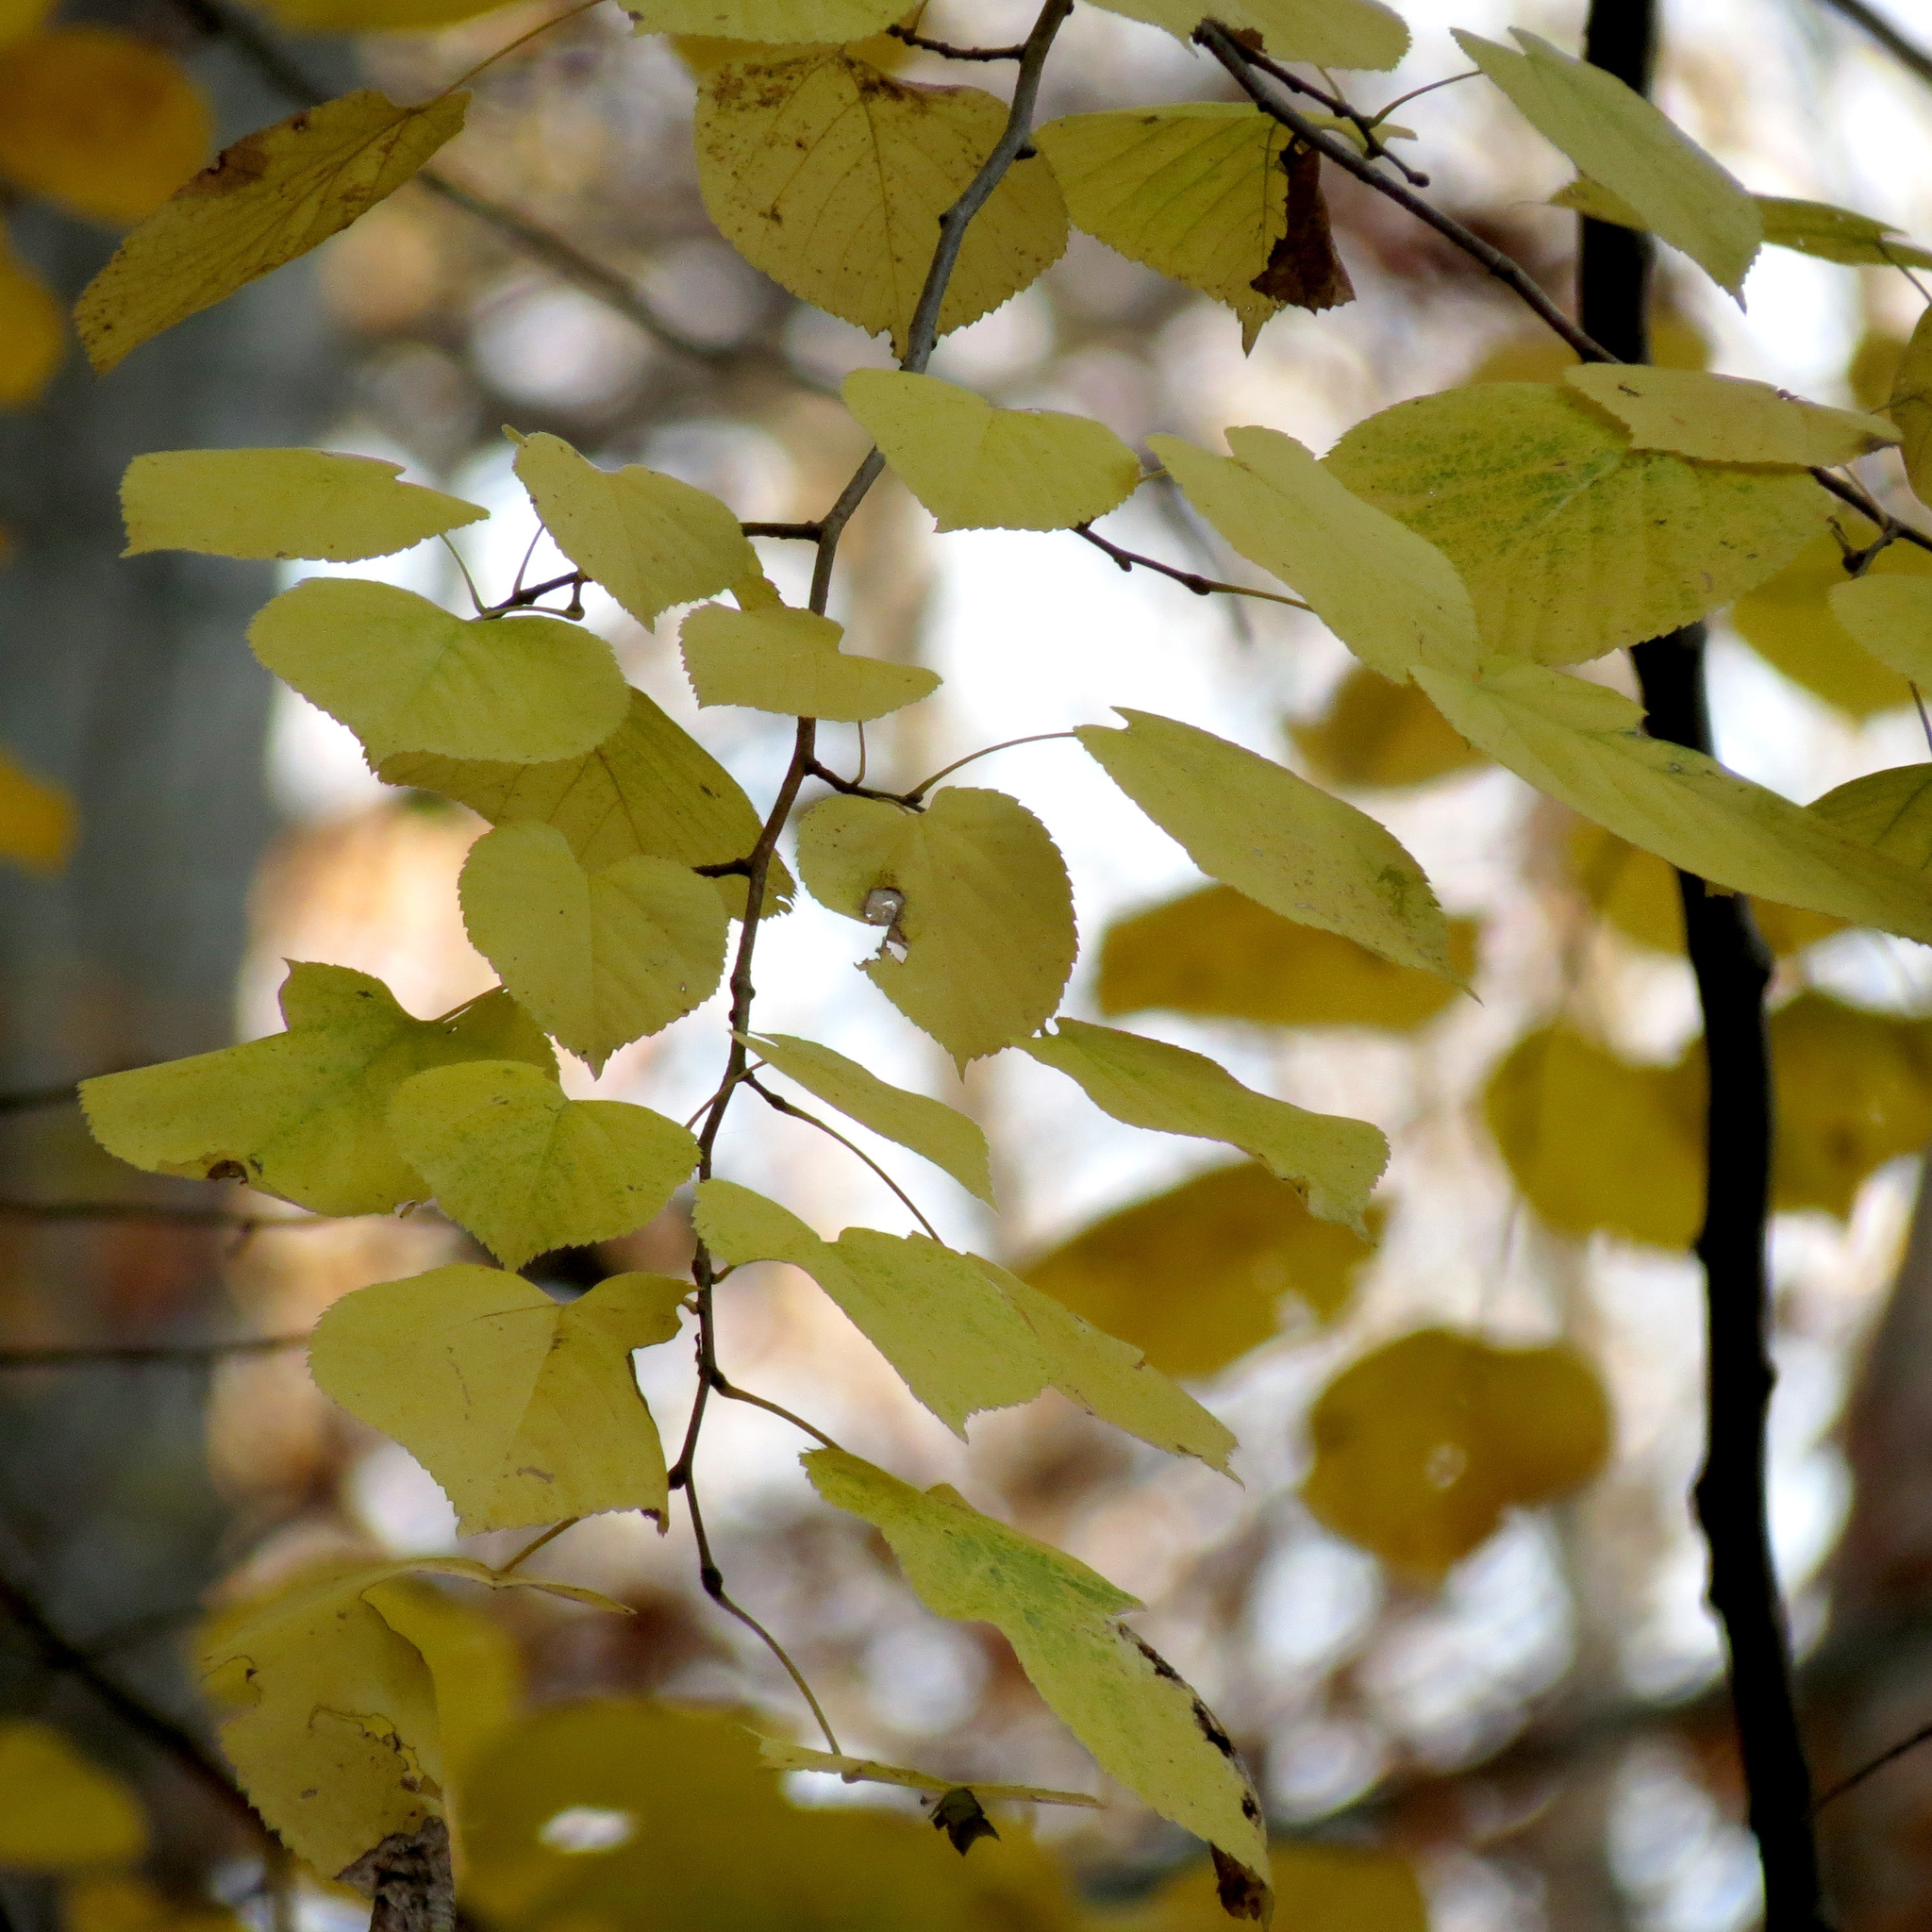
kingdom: Plantae
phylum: Tracheophyta
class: Magnoliopsida
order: Malvales
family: Malvaceae
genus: Tilia
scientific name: Tilia americana
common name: Basswood
